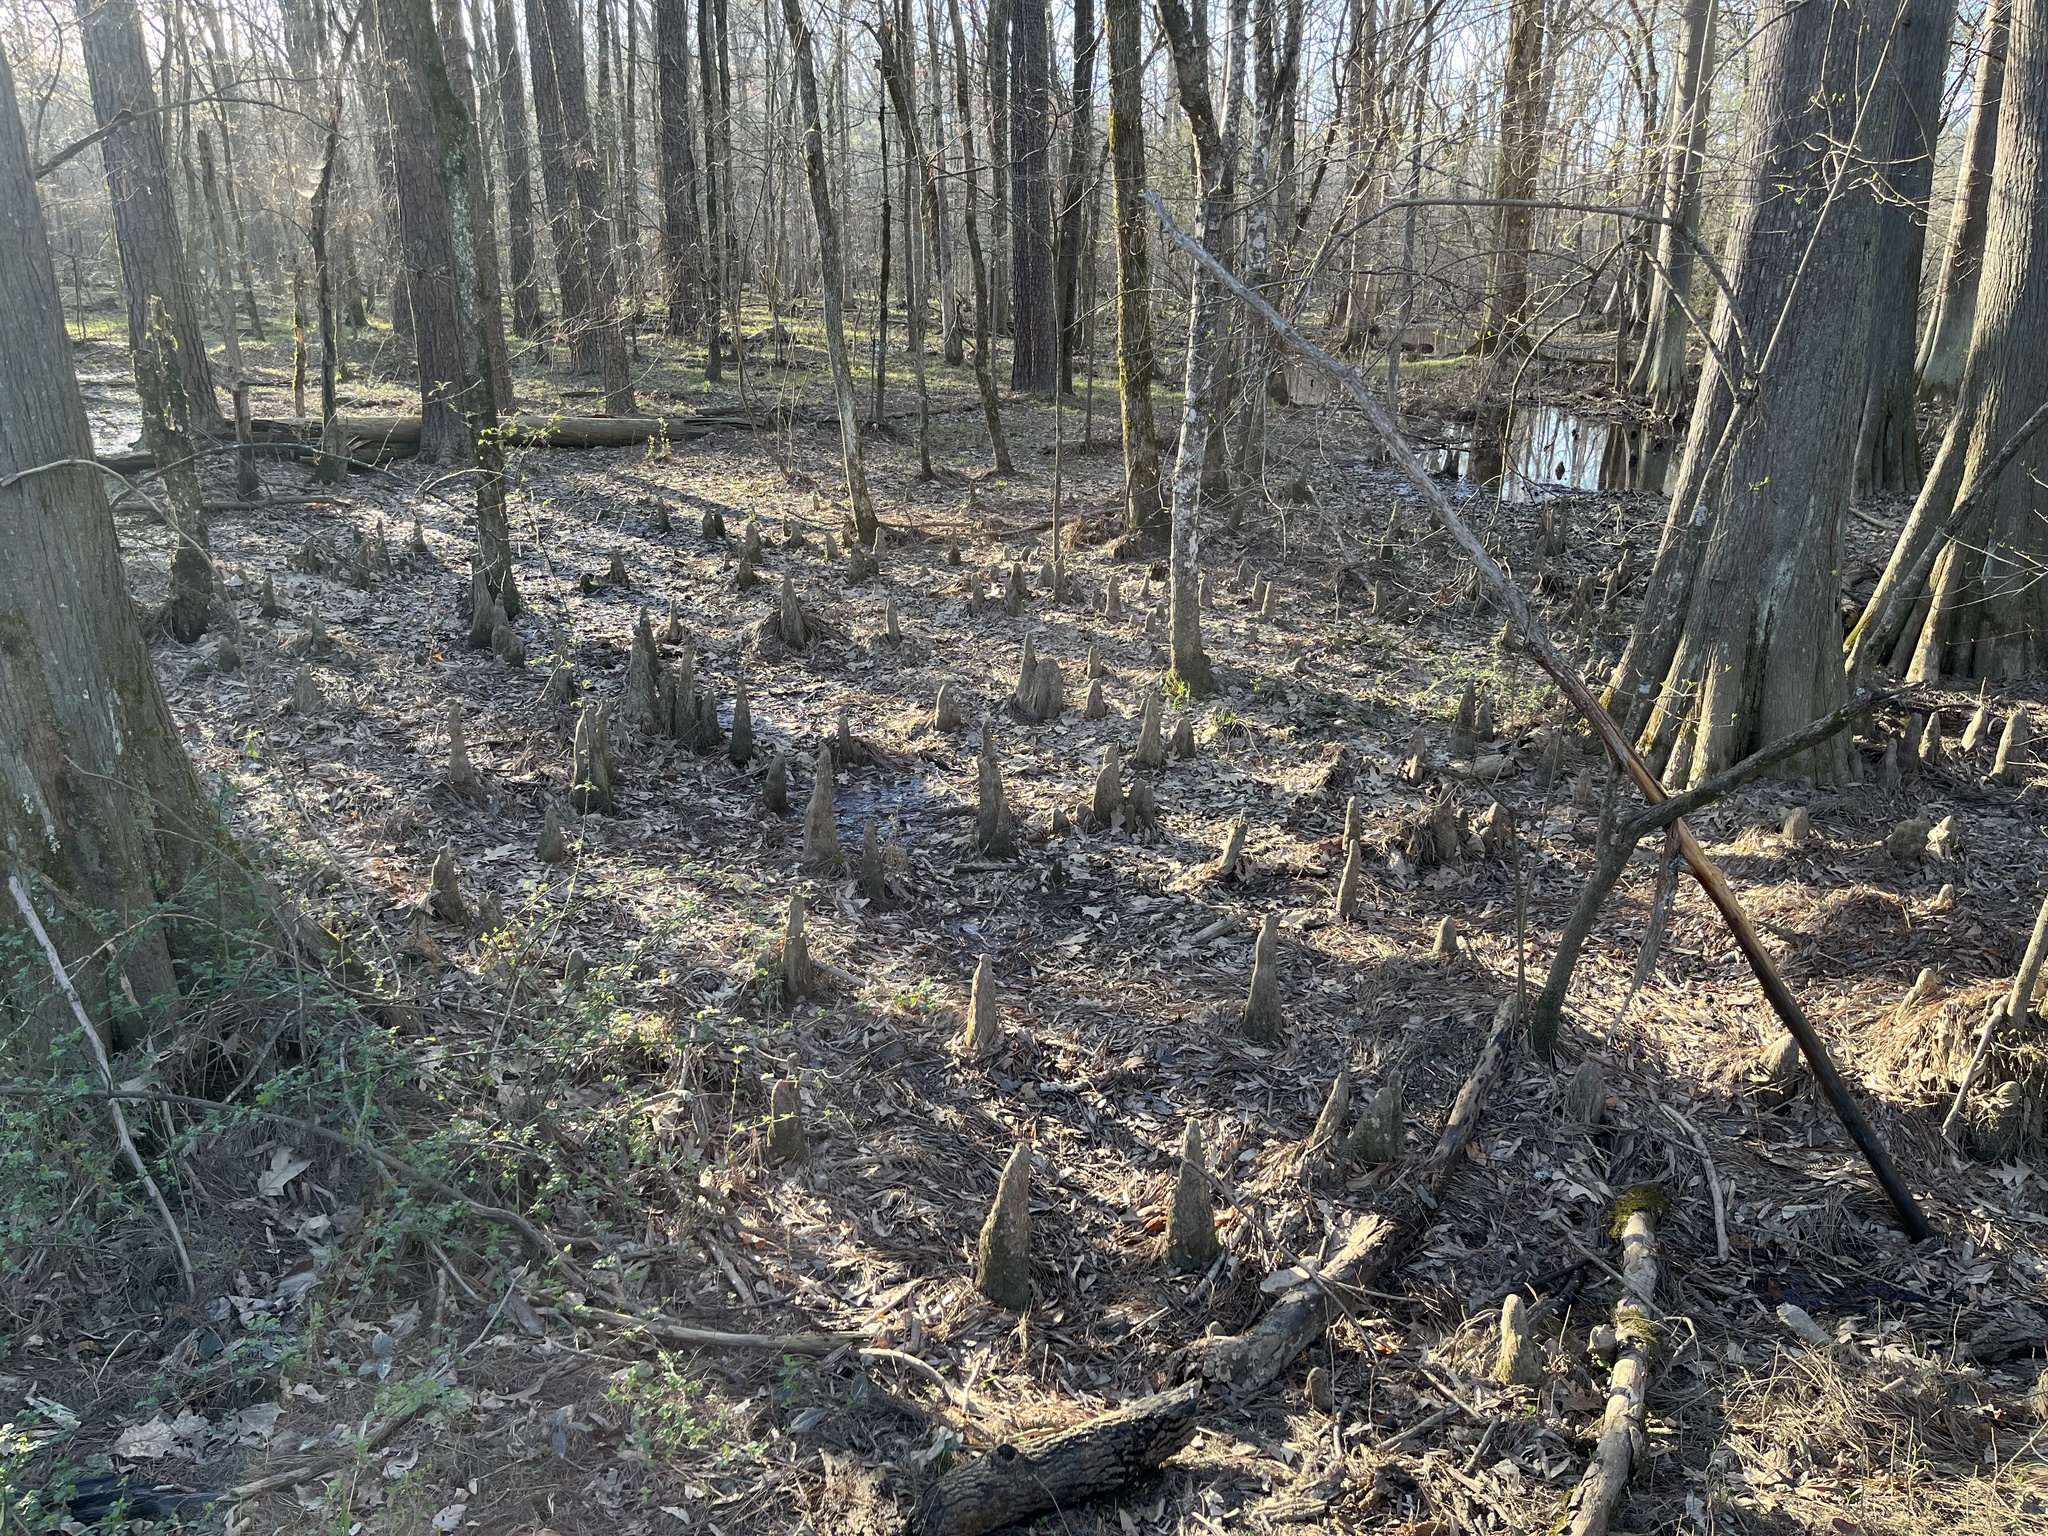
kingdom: Plantae
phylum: Tracheophyta
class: Pinopsida
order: Pinales
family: Cupressaceae
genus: Taxodium
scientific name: Taxodium distichum
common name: Bald cypress
